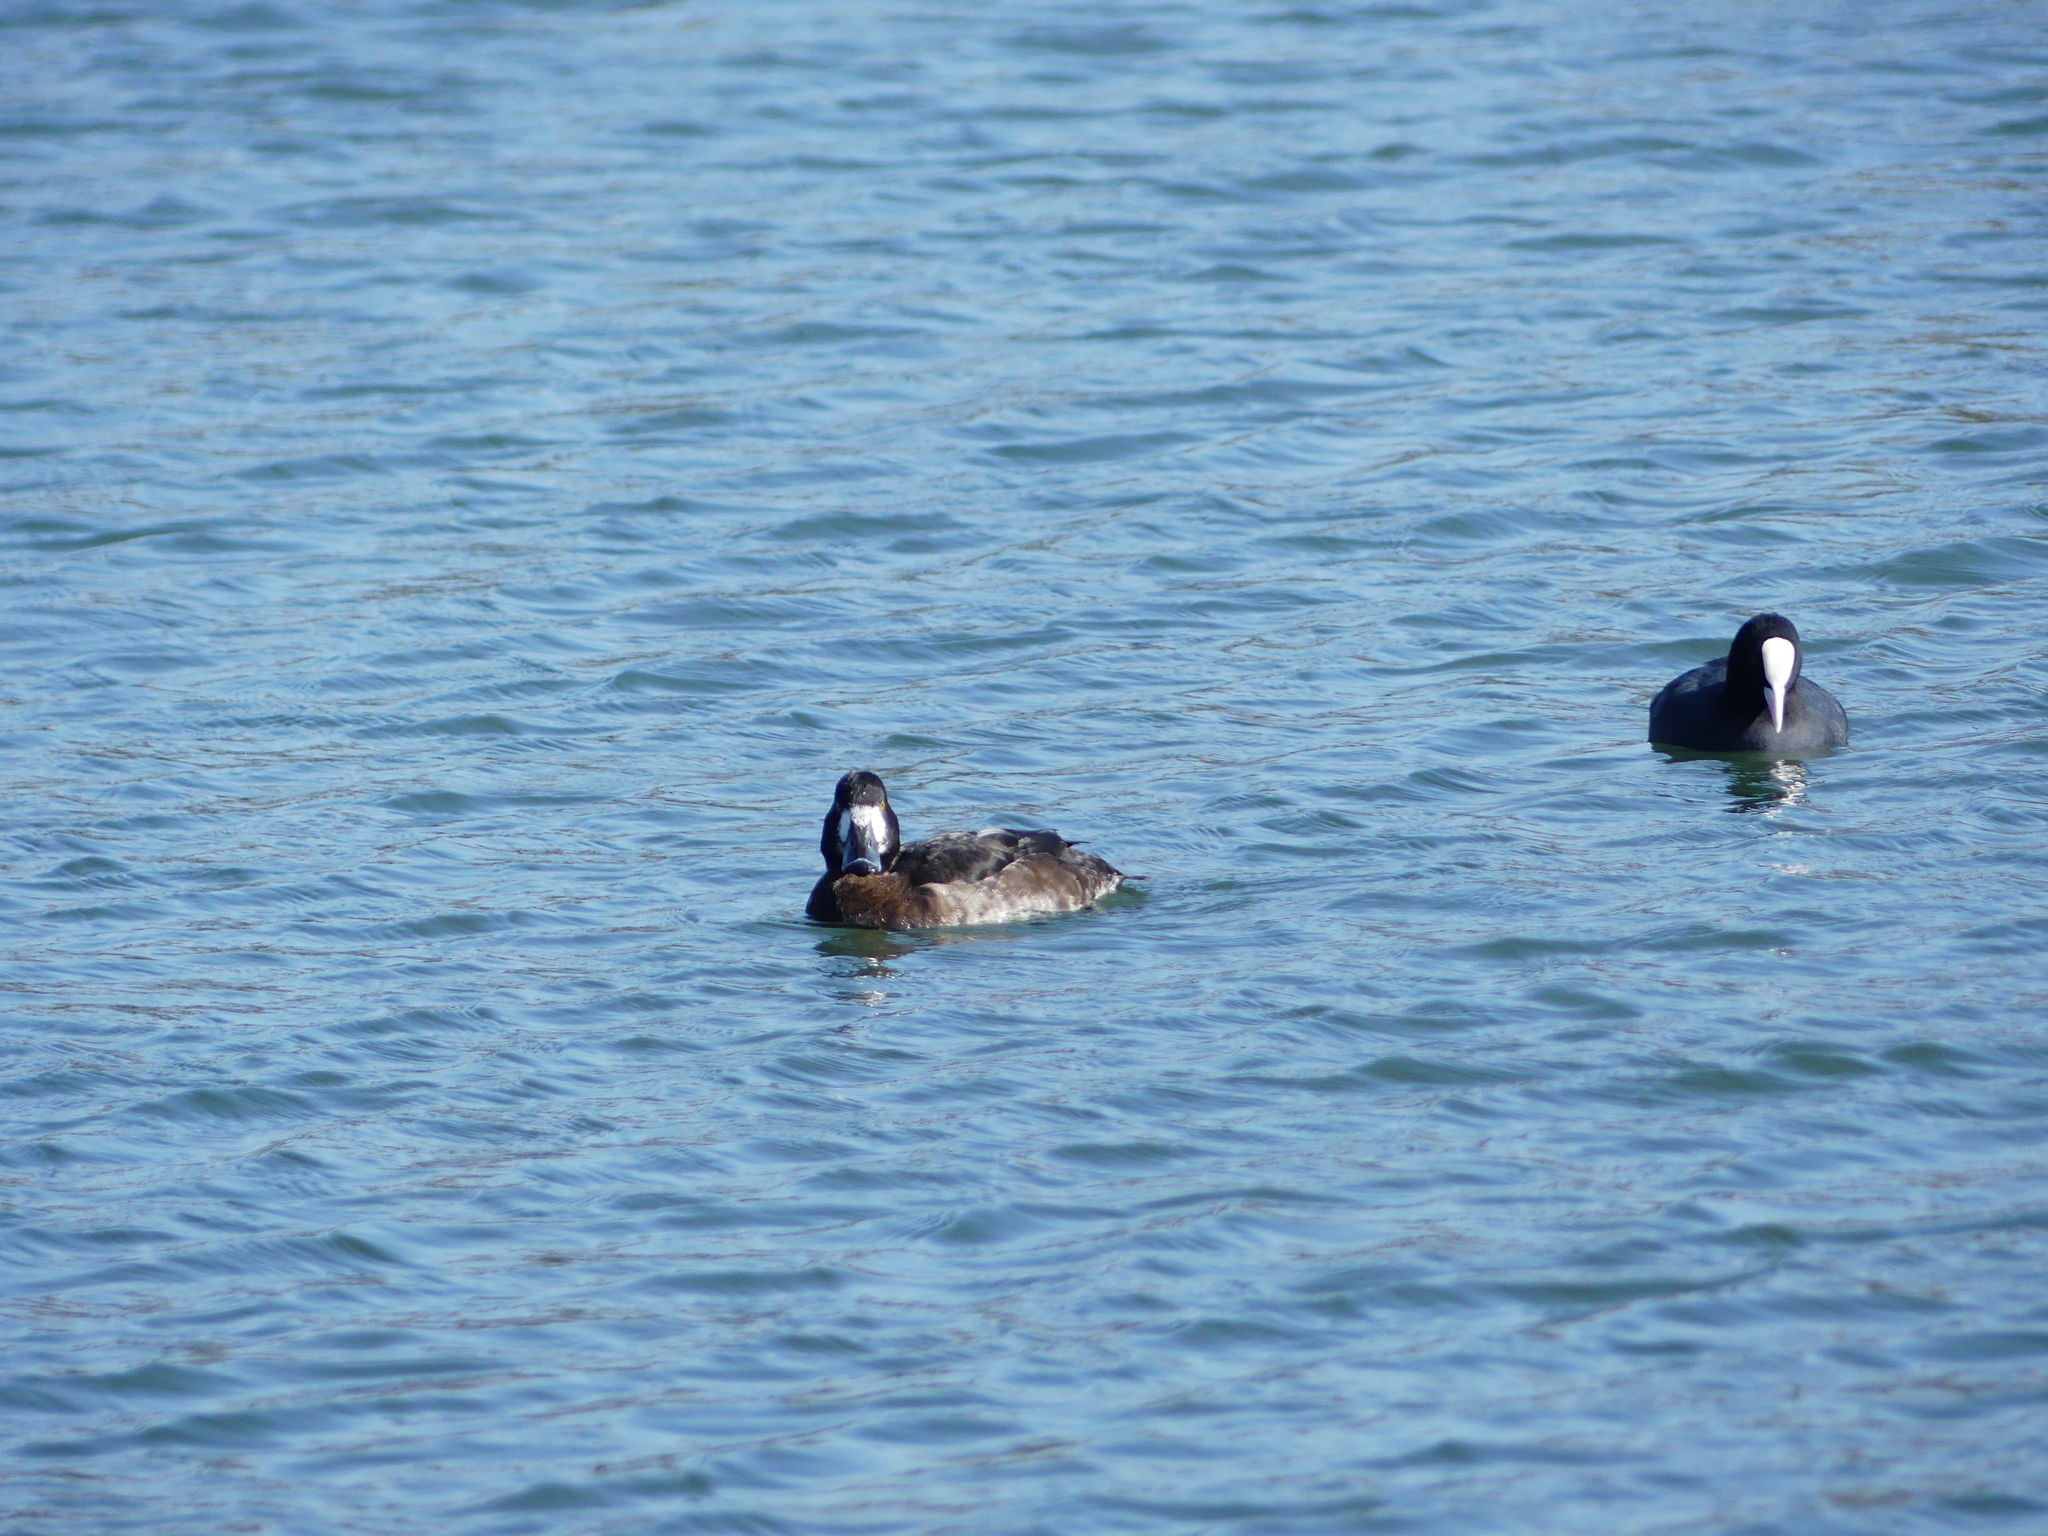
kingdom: Animalia
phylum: Chordata
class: Aves
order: Anseriformes
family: Anatidae
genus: Aythya
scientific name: Aythya fuligula
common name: Tufted duck
